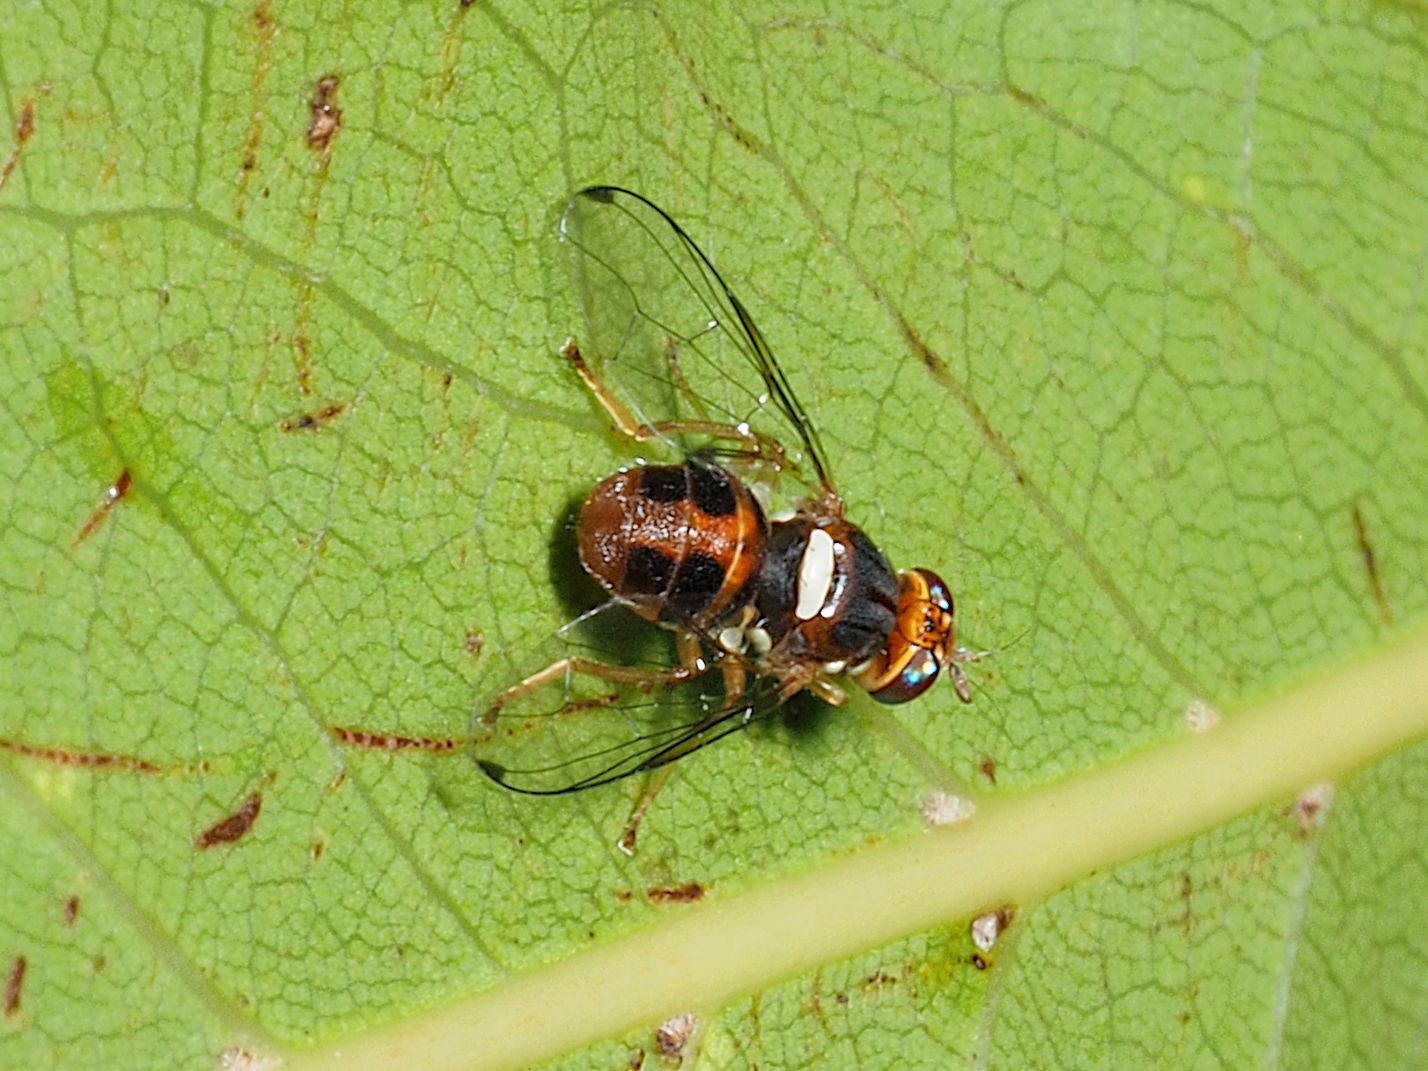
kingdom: Animalia
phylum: Arthropoda
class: Insecta
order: Diptera
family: Tephritidae
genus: Bactrocera
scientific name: Bactrocera oleae
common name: Olive fruit fly
